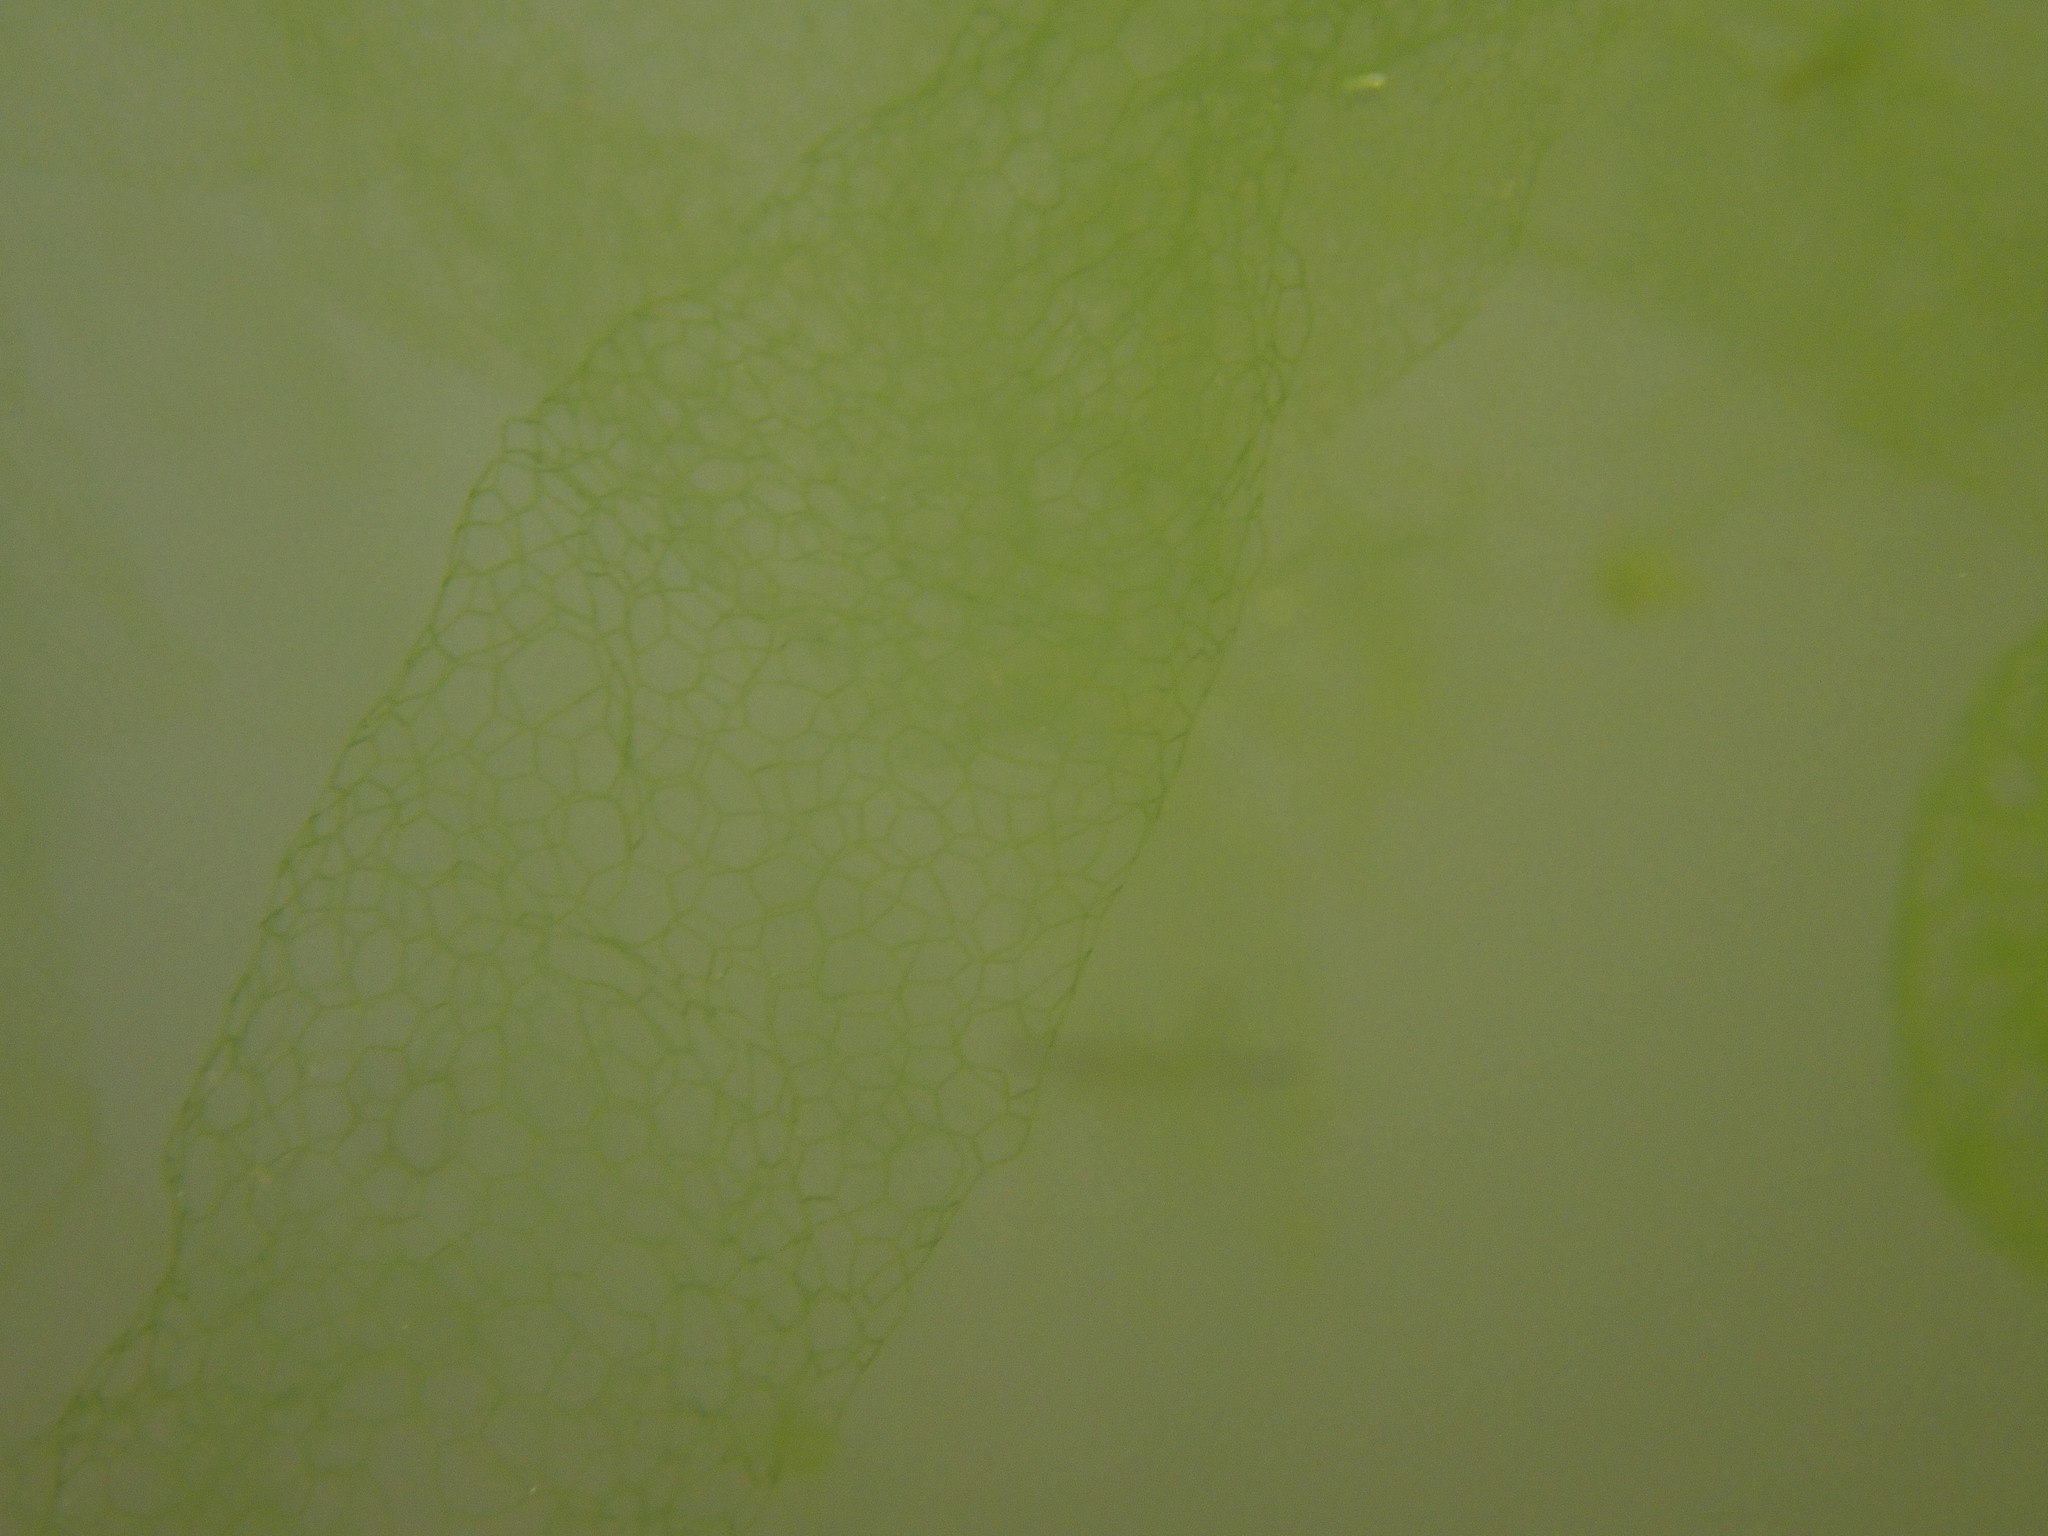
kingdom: Plantae
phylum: Chlorophyta
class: Chlorophyceae
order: Sphaeropleales
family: Hydrodictyaceae
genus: Hydrodictyon
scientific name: Hydrodictyon reticulatum
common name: Water net
